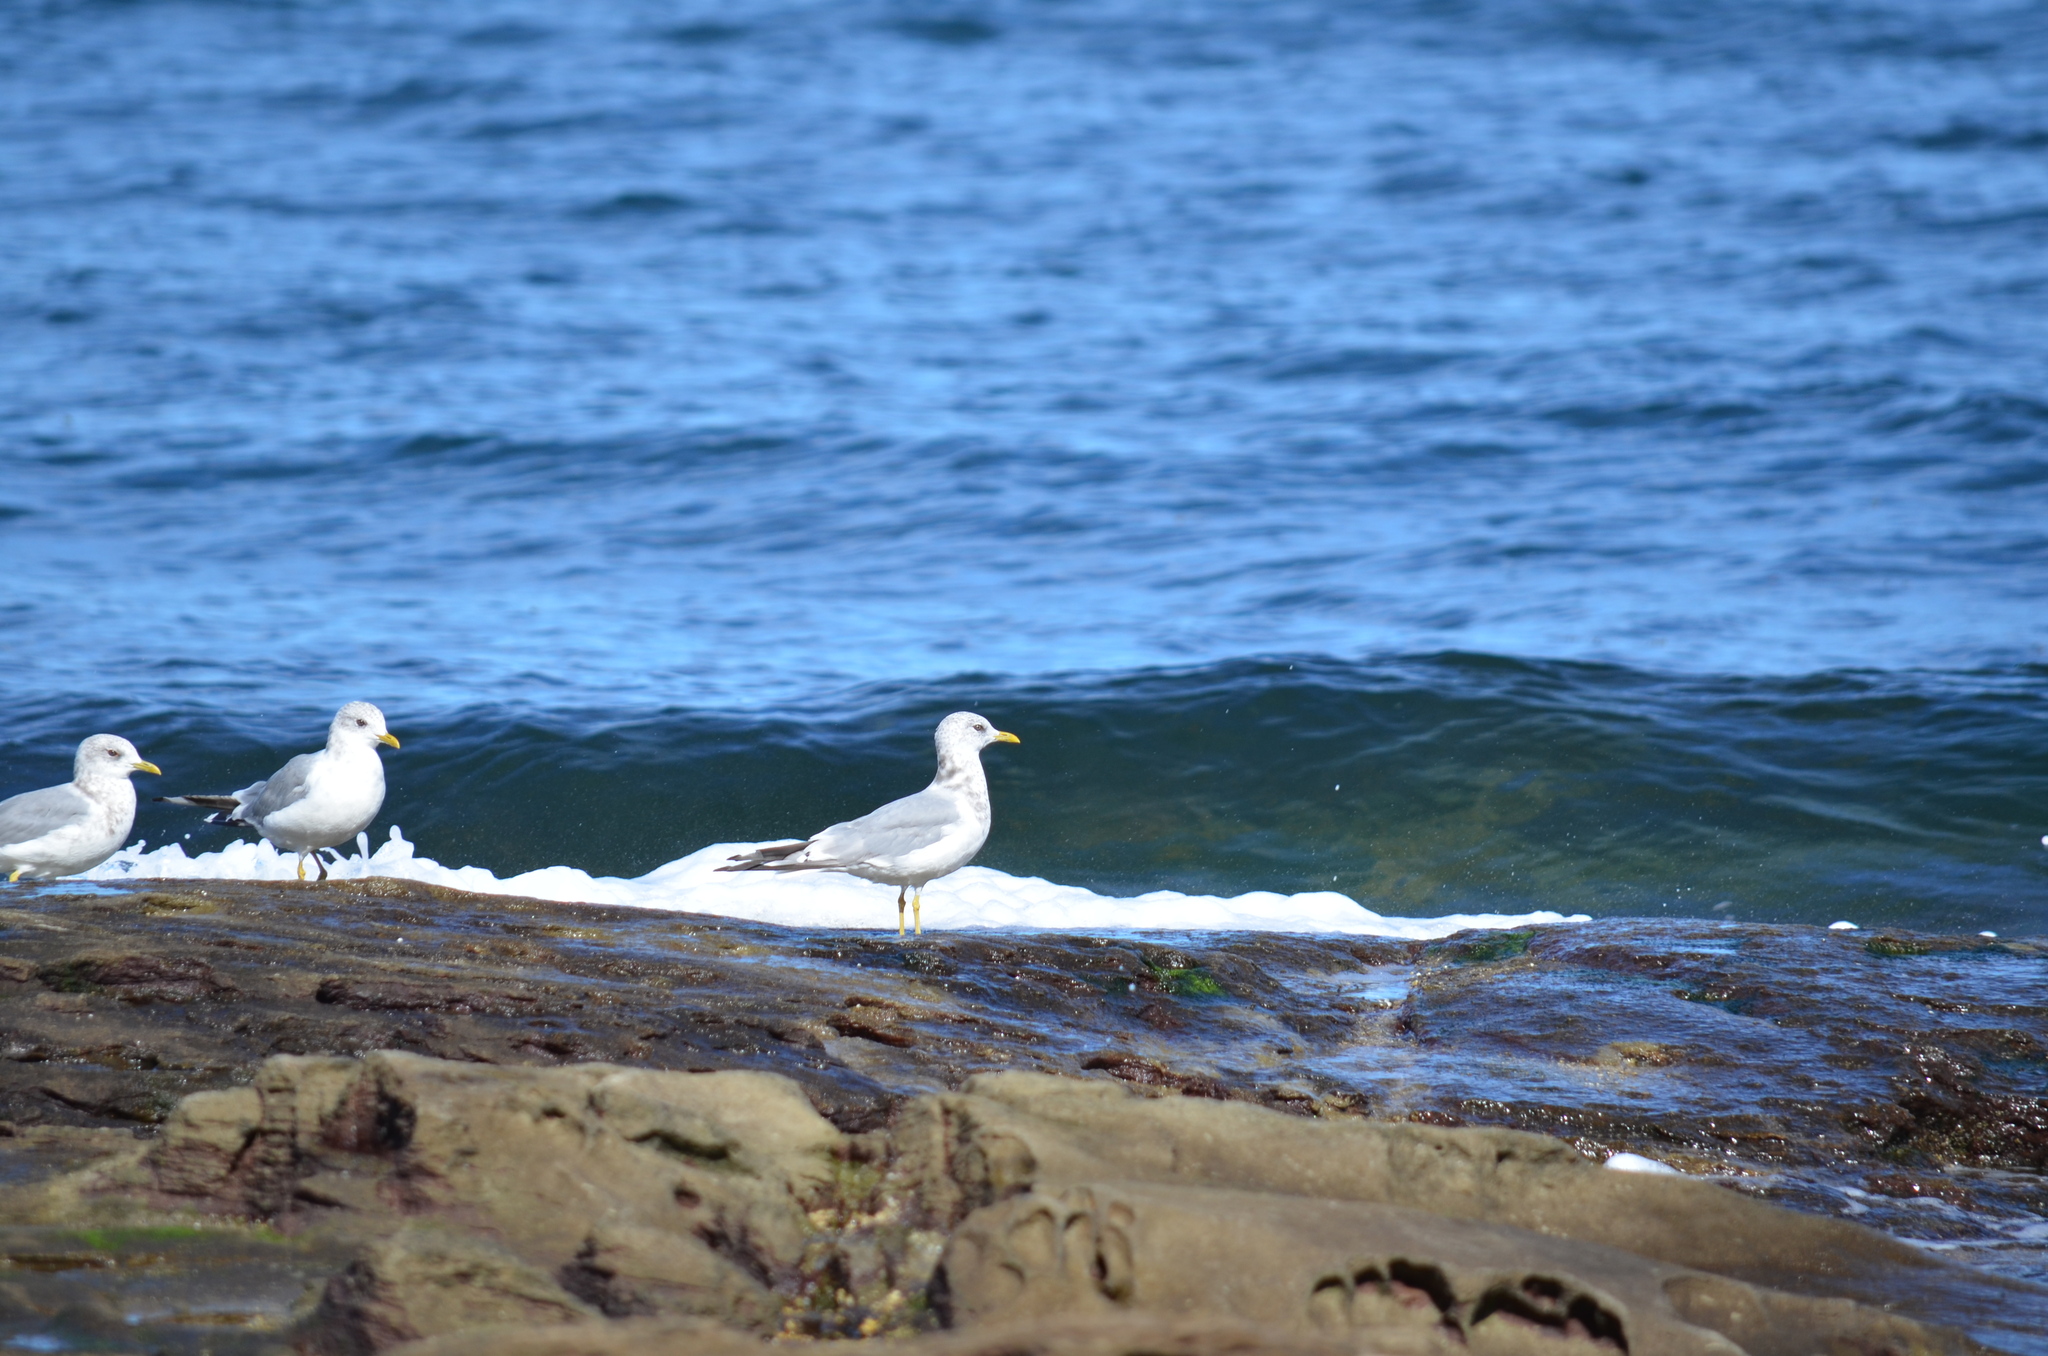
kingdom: Animalia
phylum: Chordata
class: Aves
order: Charadriiformes
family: Laridae
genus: Larus
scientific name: Larus glaucescens
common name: Glaucous-winged gull
